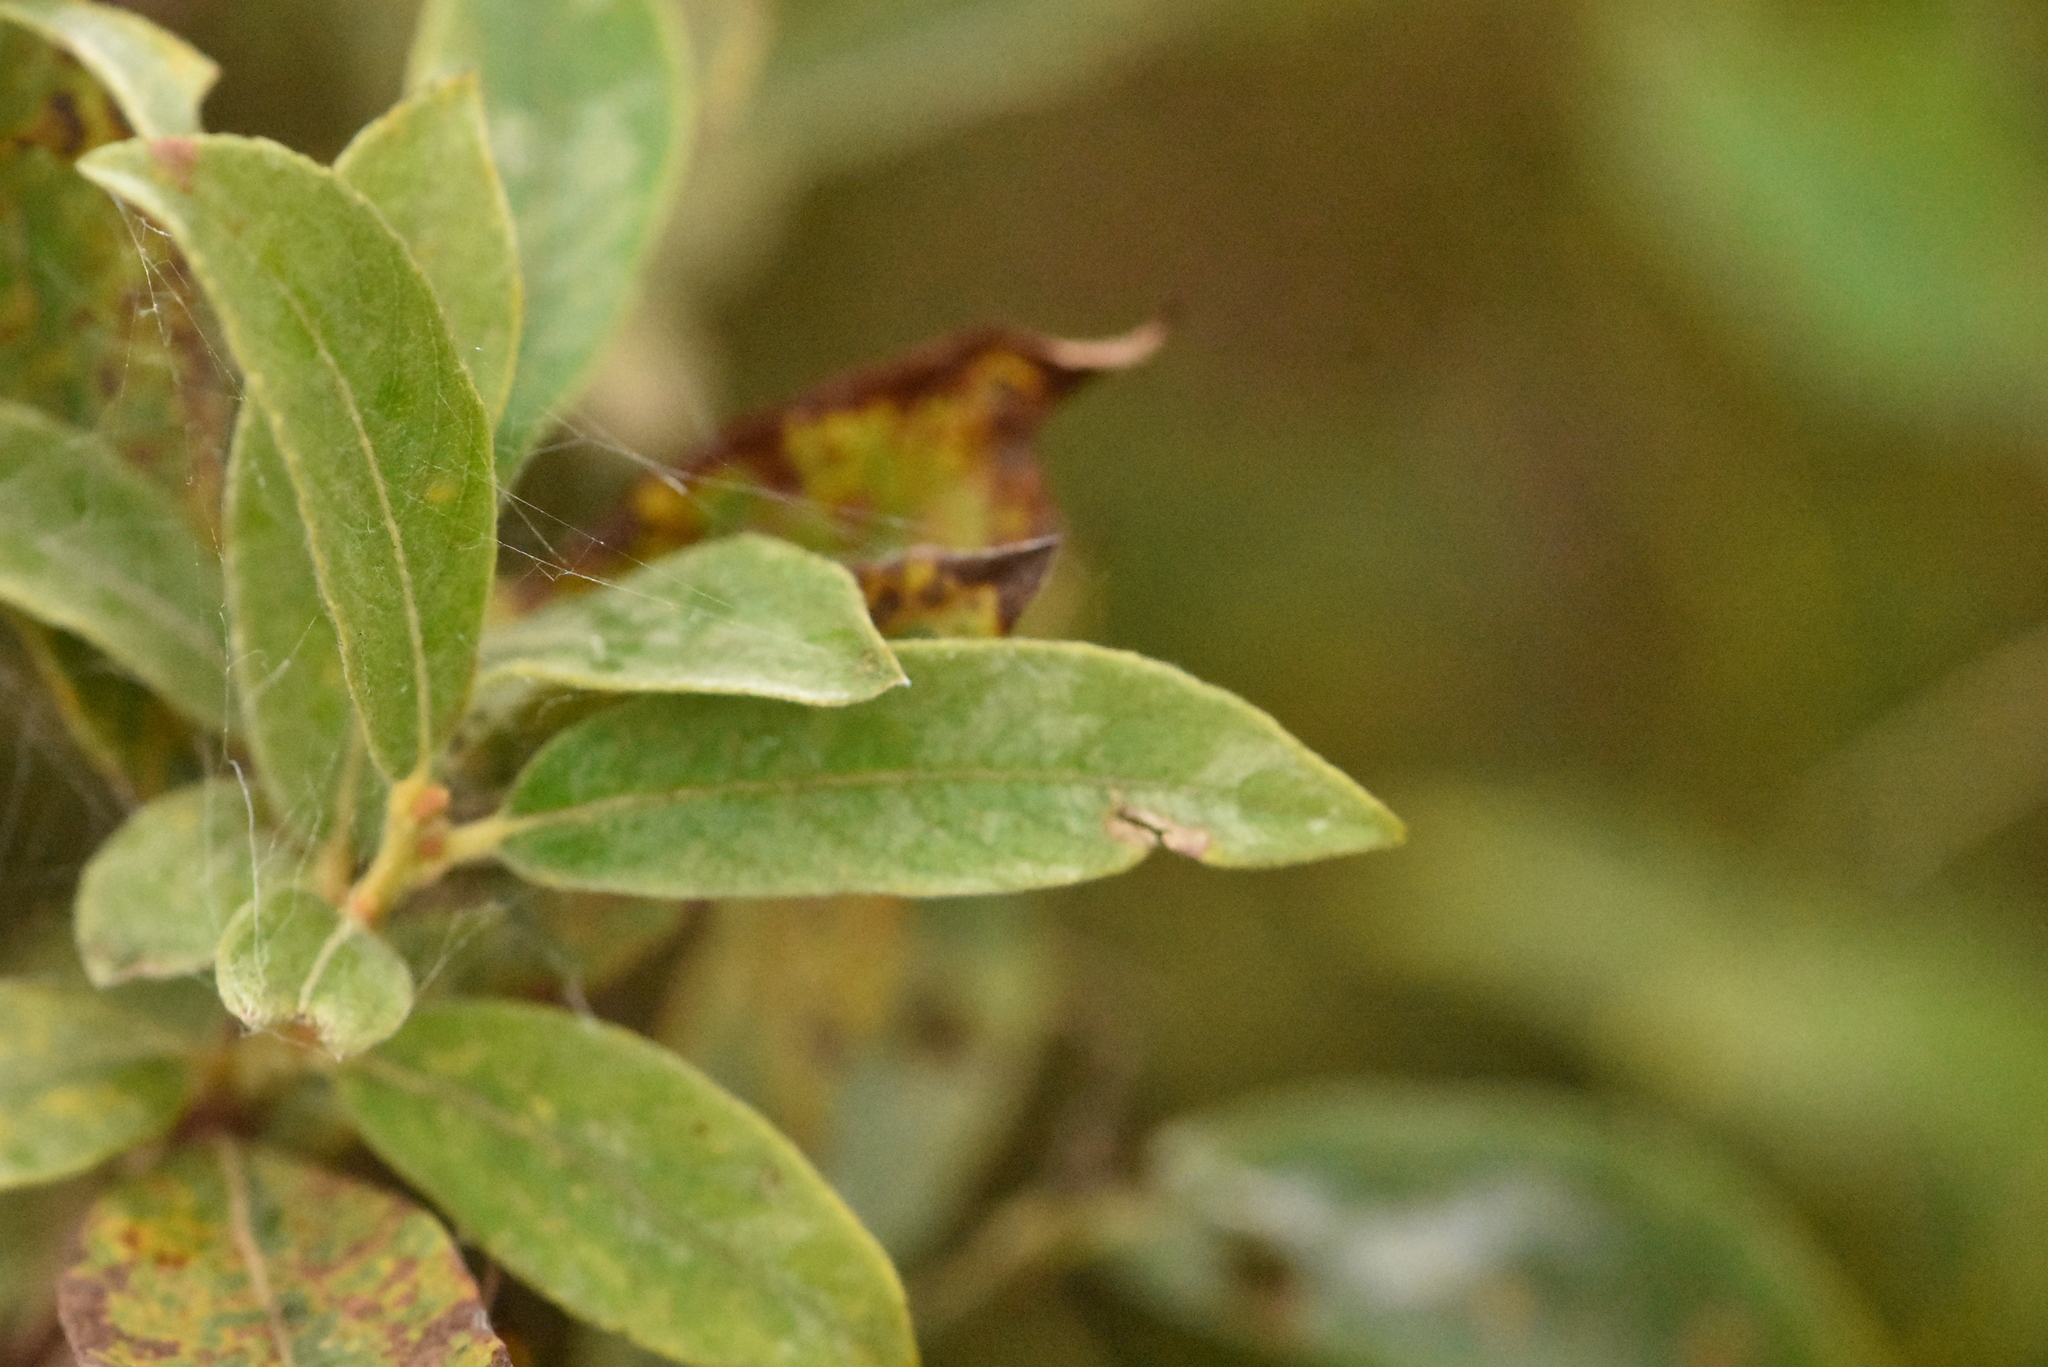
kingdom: Plantae
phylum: Tracheophyta
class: Magnoliopsida
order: Malpighiales
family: Salicaceae
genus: Salix
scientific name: Salix cinerea
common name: Common sallow
